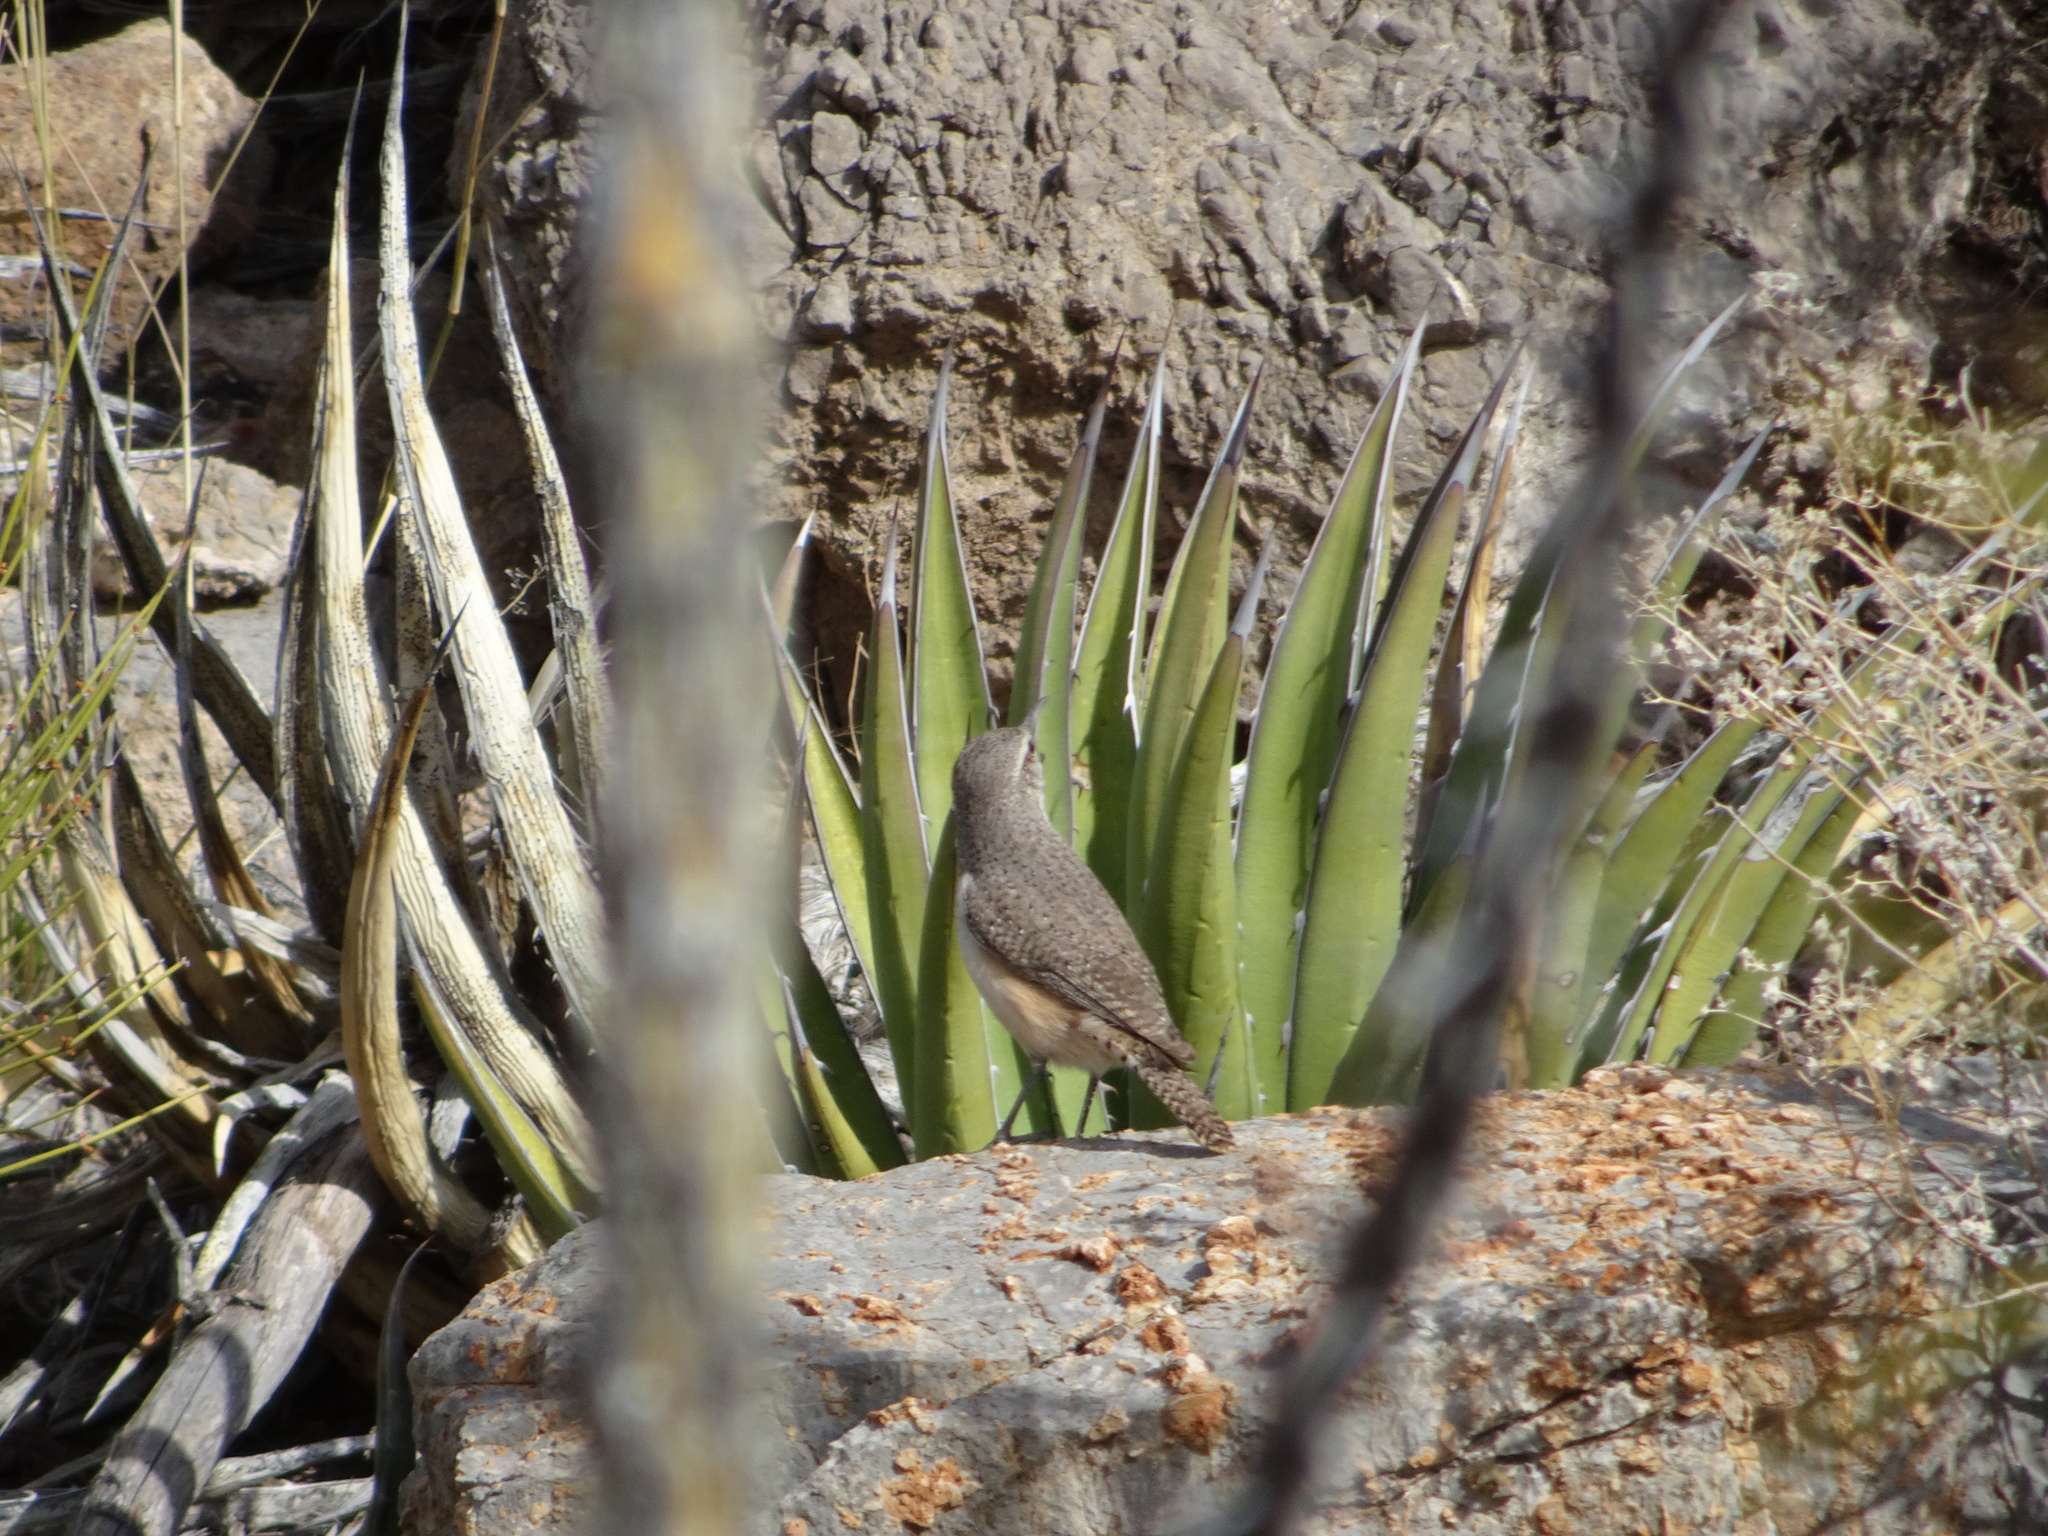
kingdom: Animalia
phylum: Chordata
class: Aves
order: Passeriformes
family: Troglodytidae
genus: Salpinctes
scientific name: Salpinctes obsoletus
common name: Rock wren
